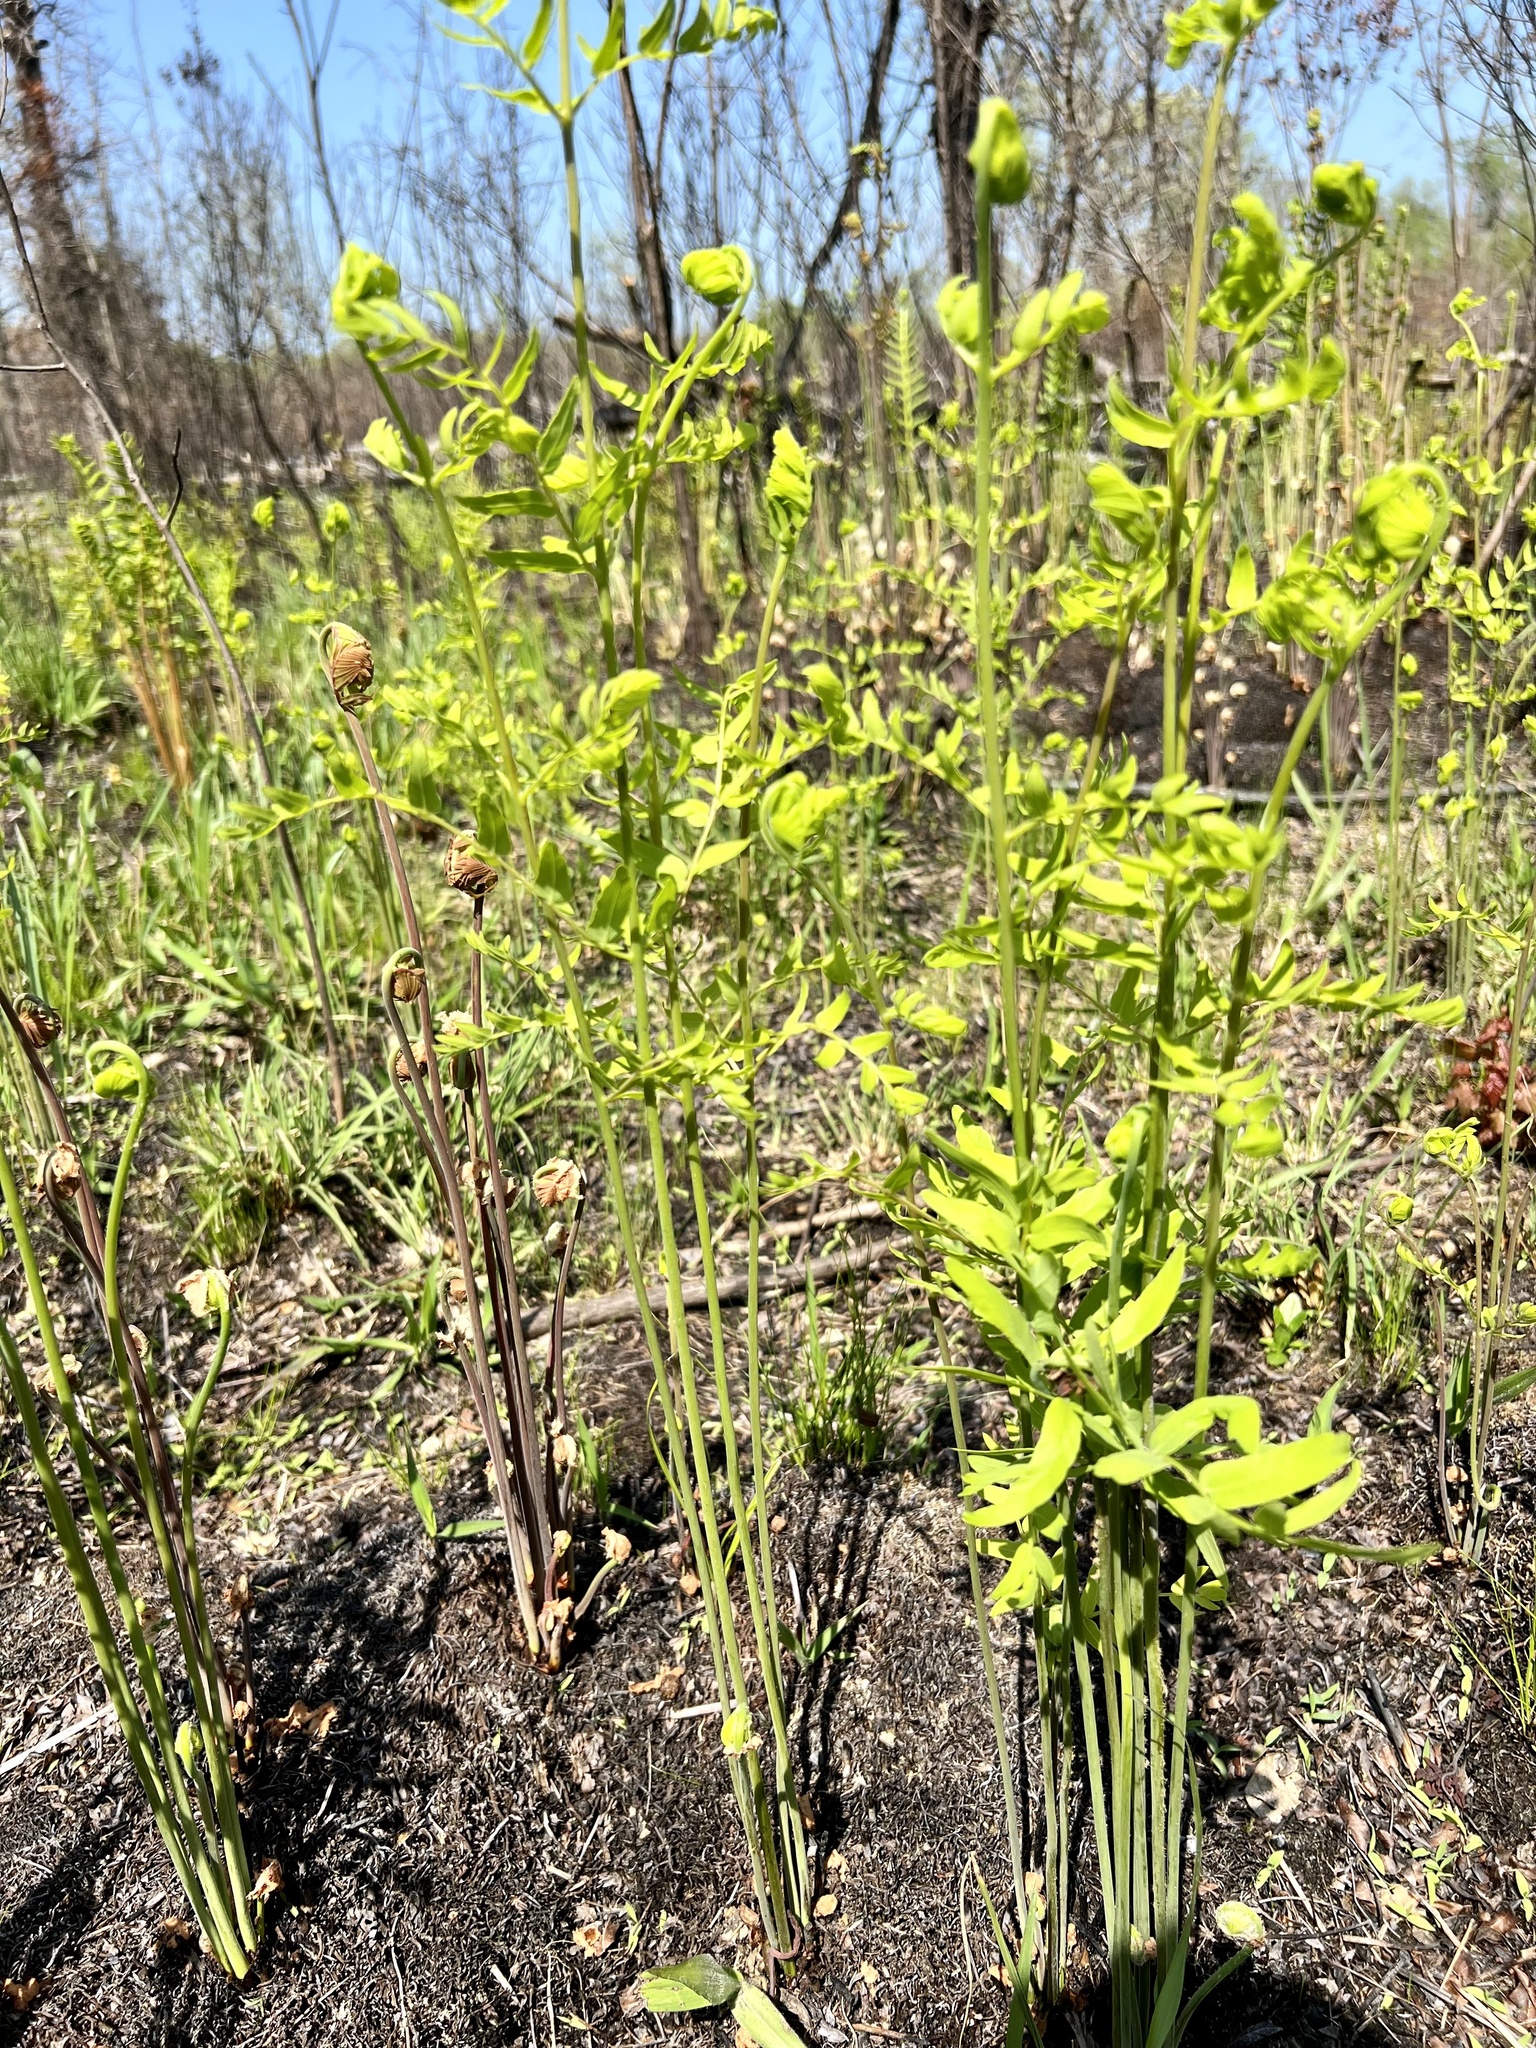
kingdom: Plantae
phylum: Tracheophyta
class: Polypodiopsida
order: Osmundales
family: Osmundaceae
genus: Osmunda
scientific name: Osmunda spectabilis
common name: American royal fern
